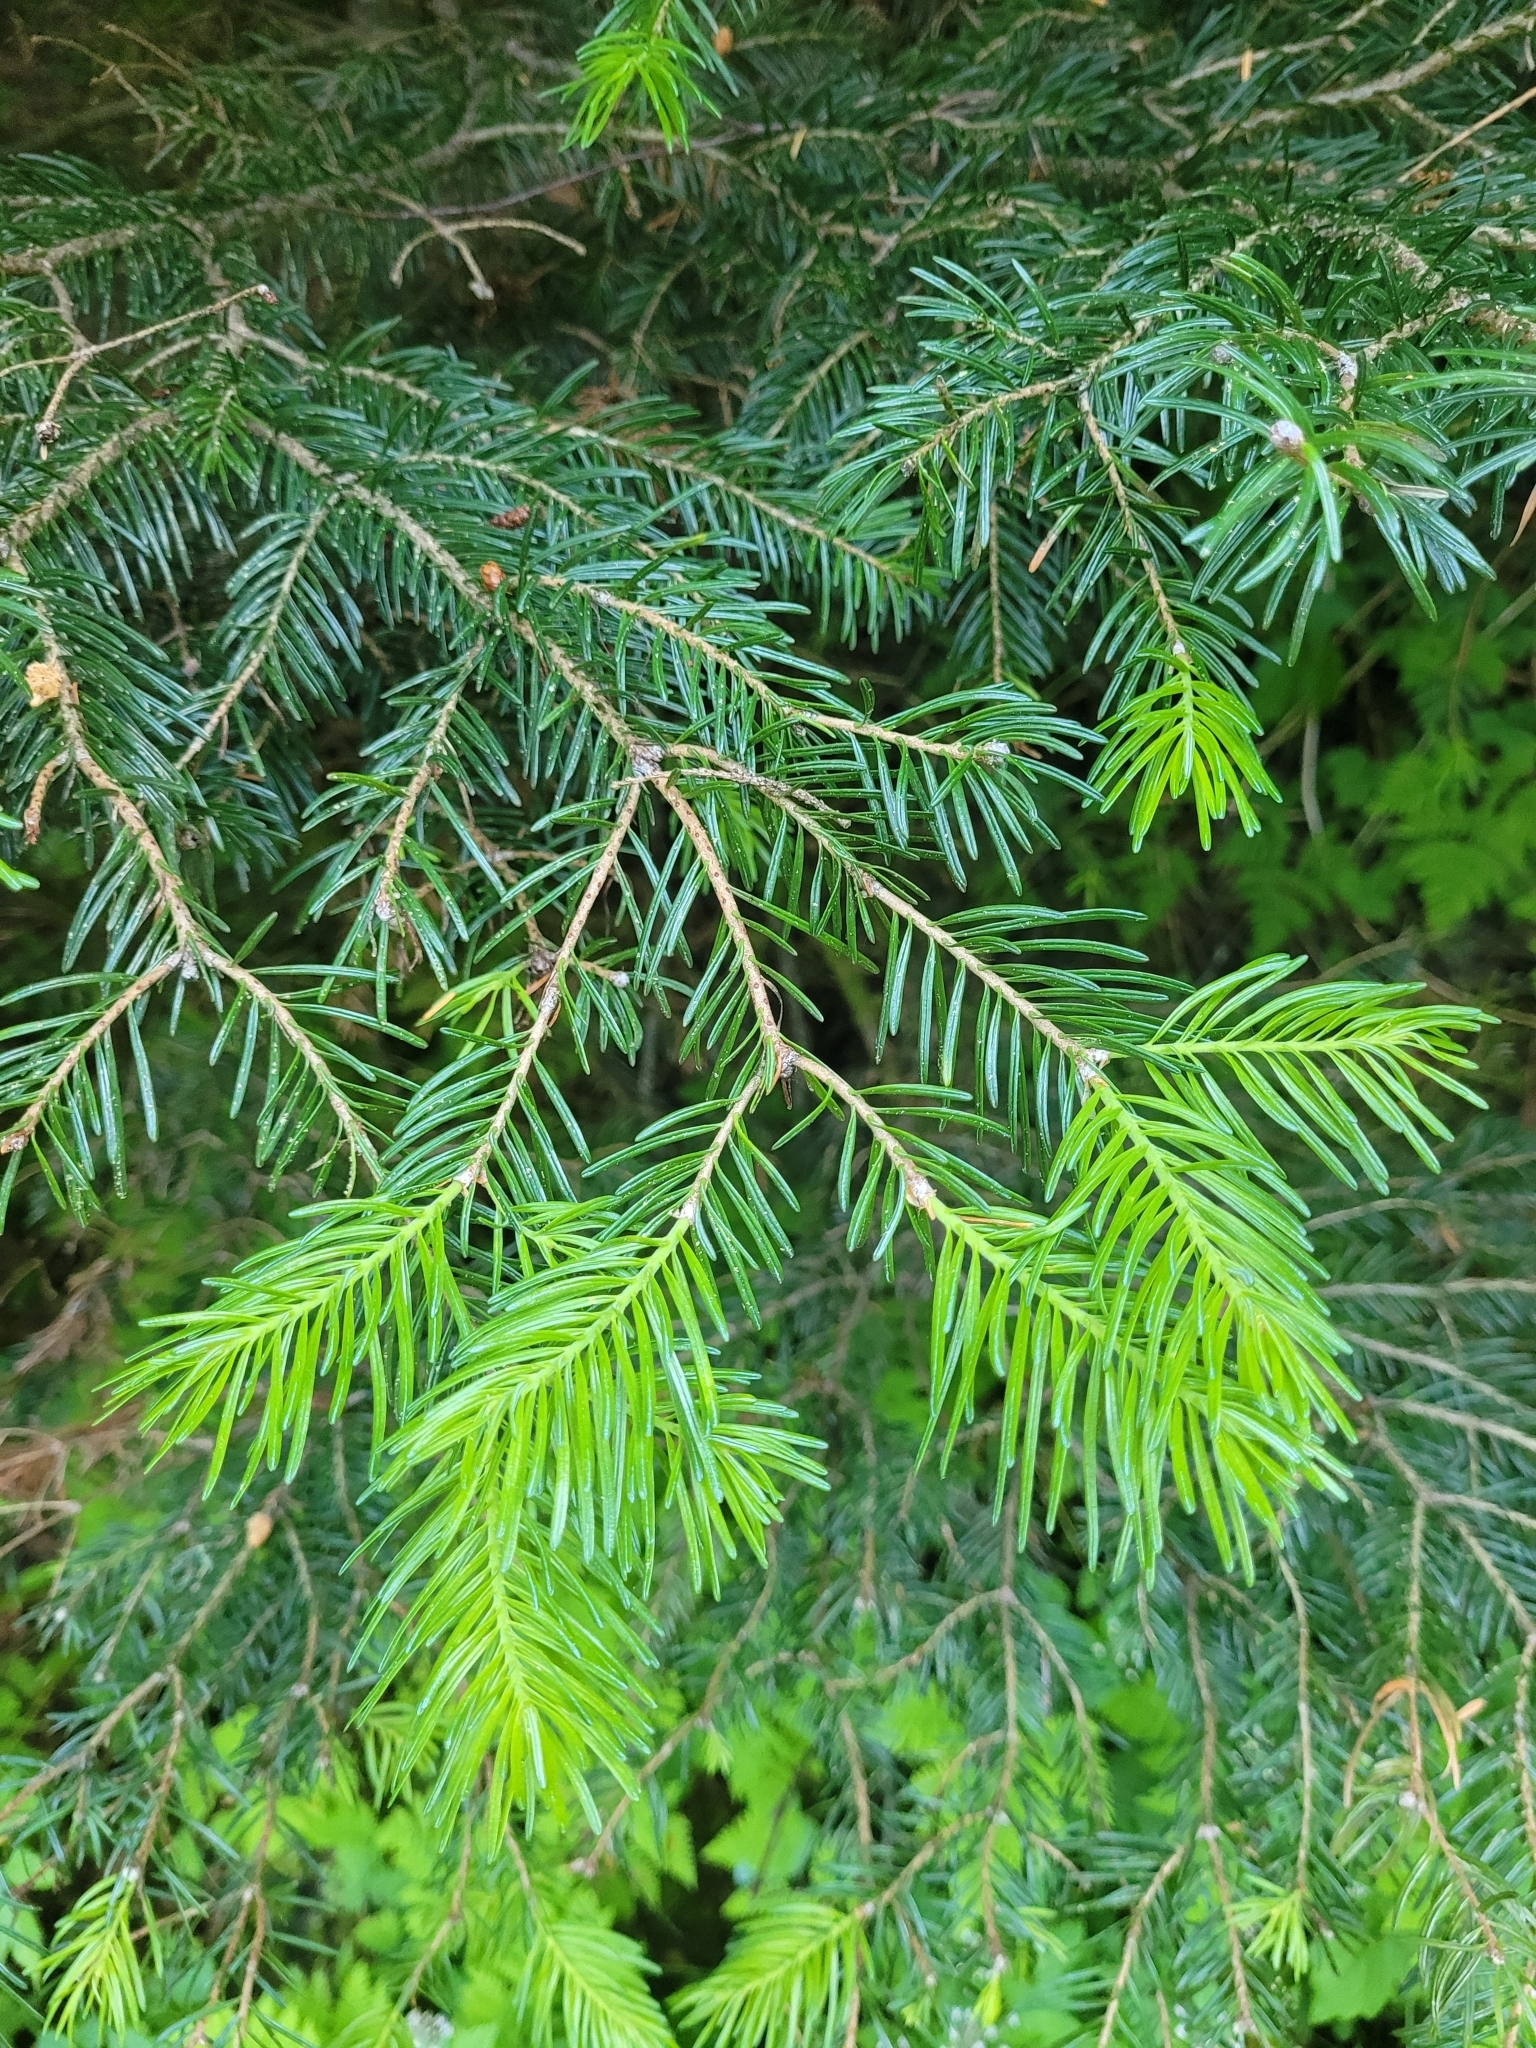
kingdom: Plantae
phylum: Tracheophyta
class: Pinopsida
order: Pinales
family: Pinaceae
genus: Abies
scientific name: Abies lasiocarpa
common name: Subalpine fir
